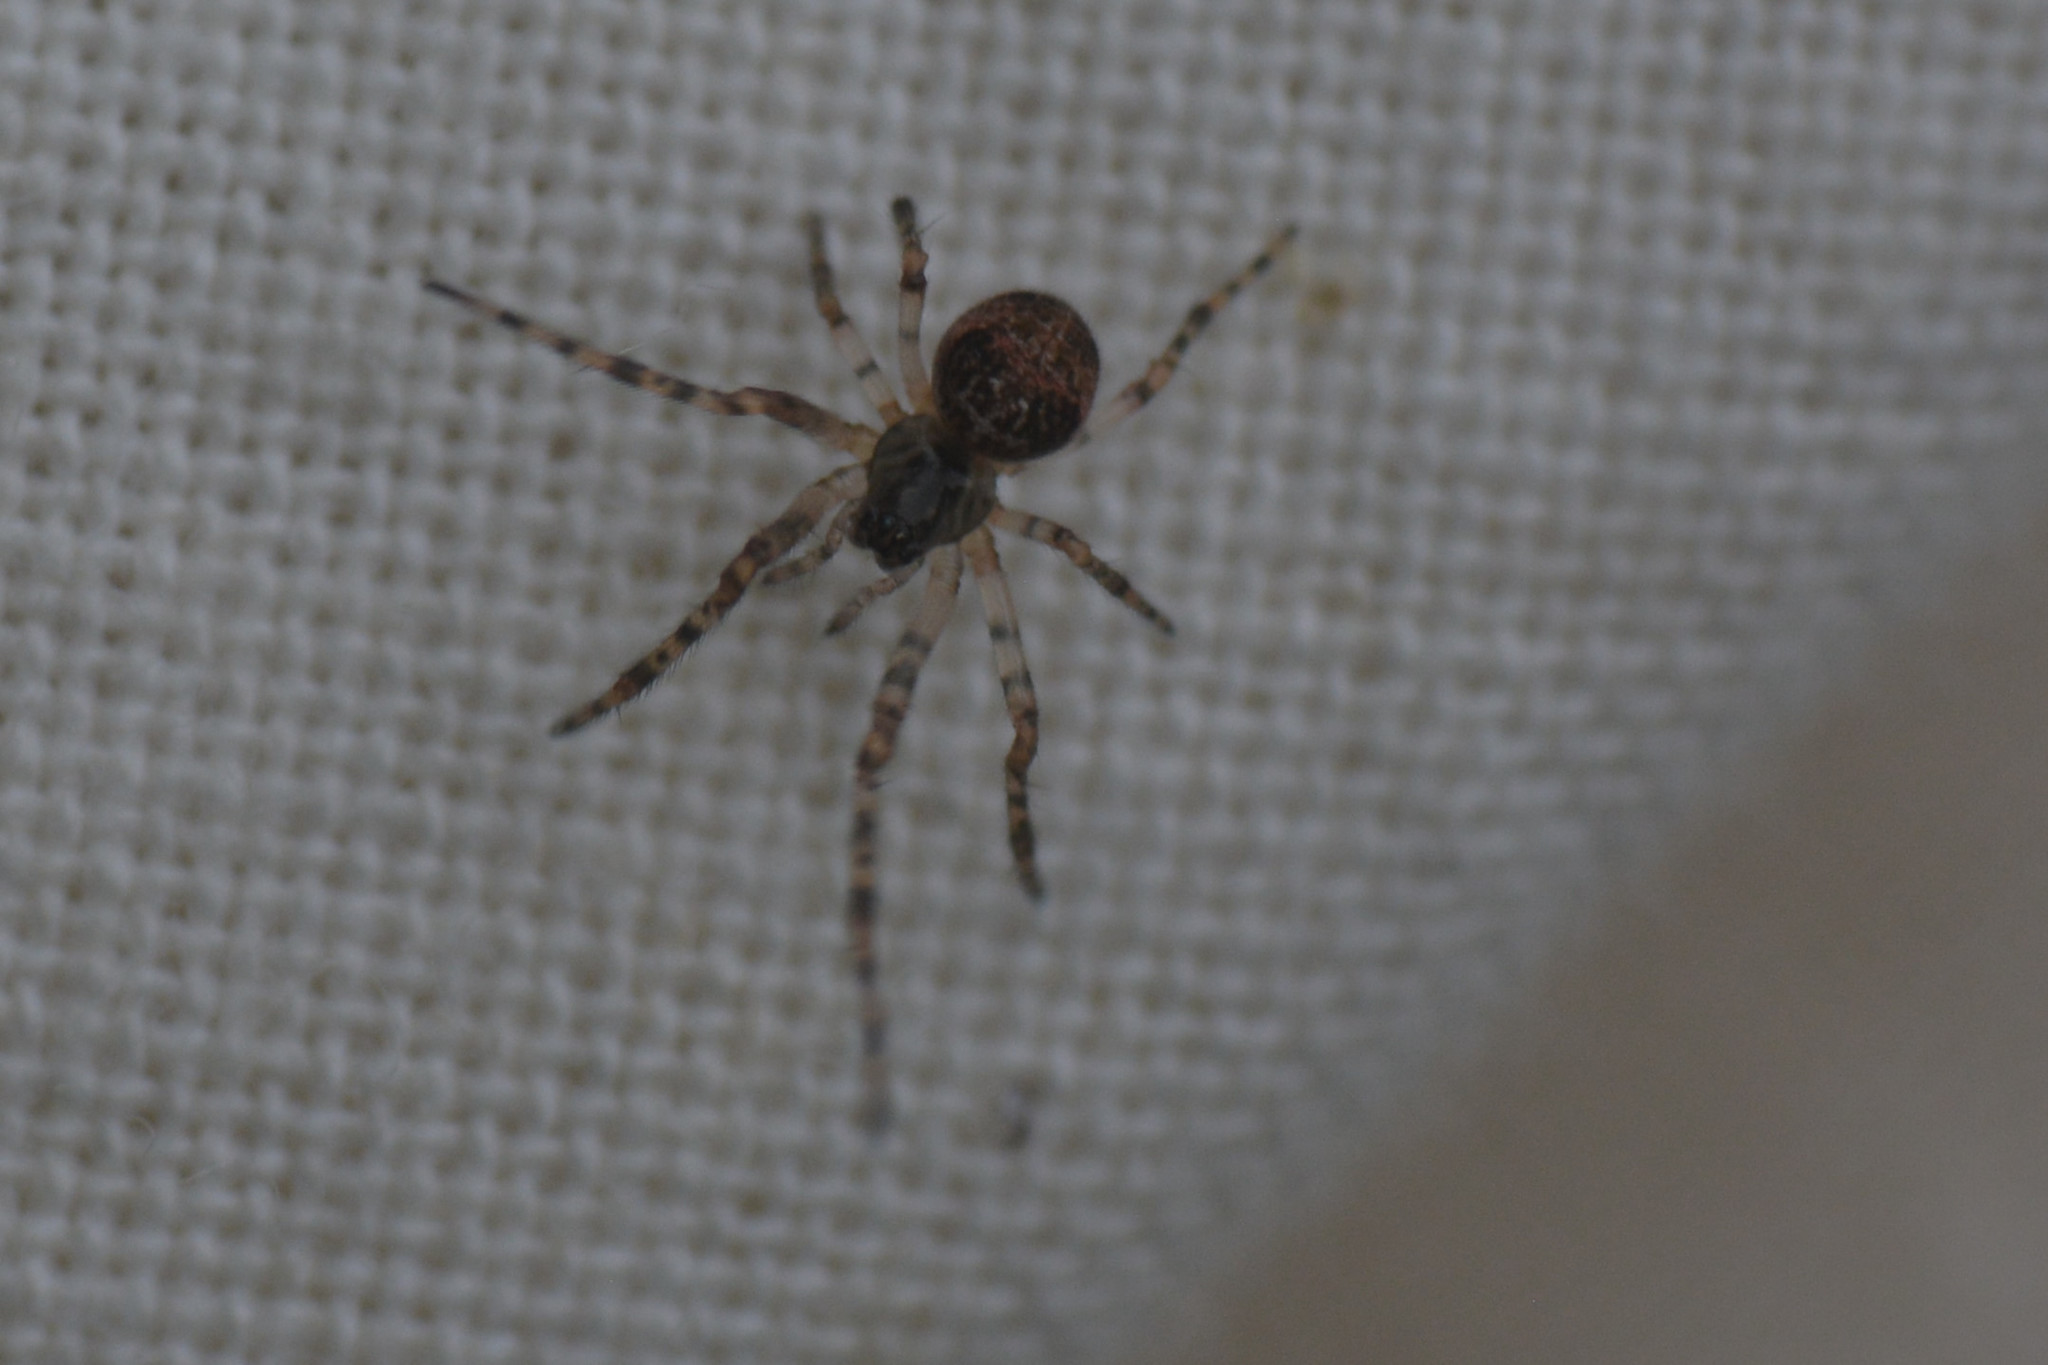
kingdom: Animalia
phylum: Arthropoda
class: Arachnida
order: Araneae
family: Tetragnathidae
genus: Metellina
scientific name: Metellina merianae
